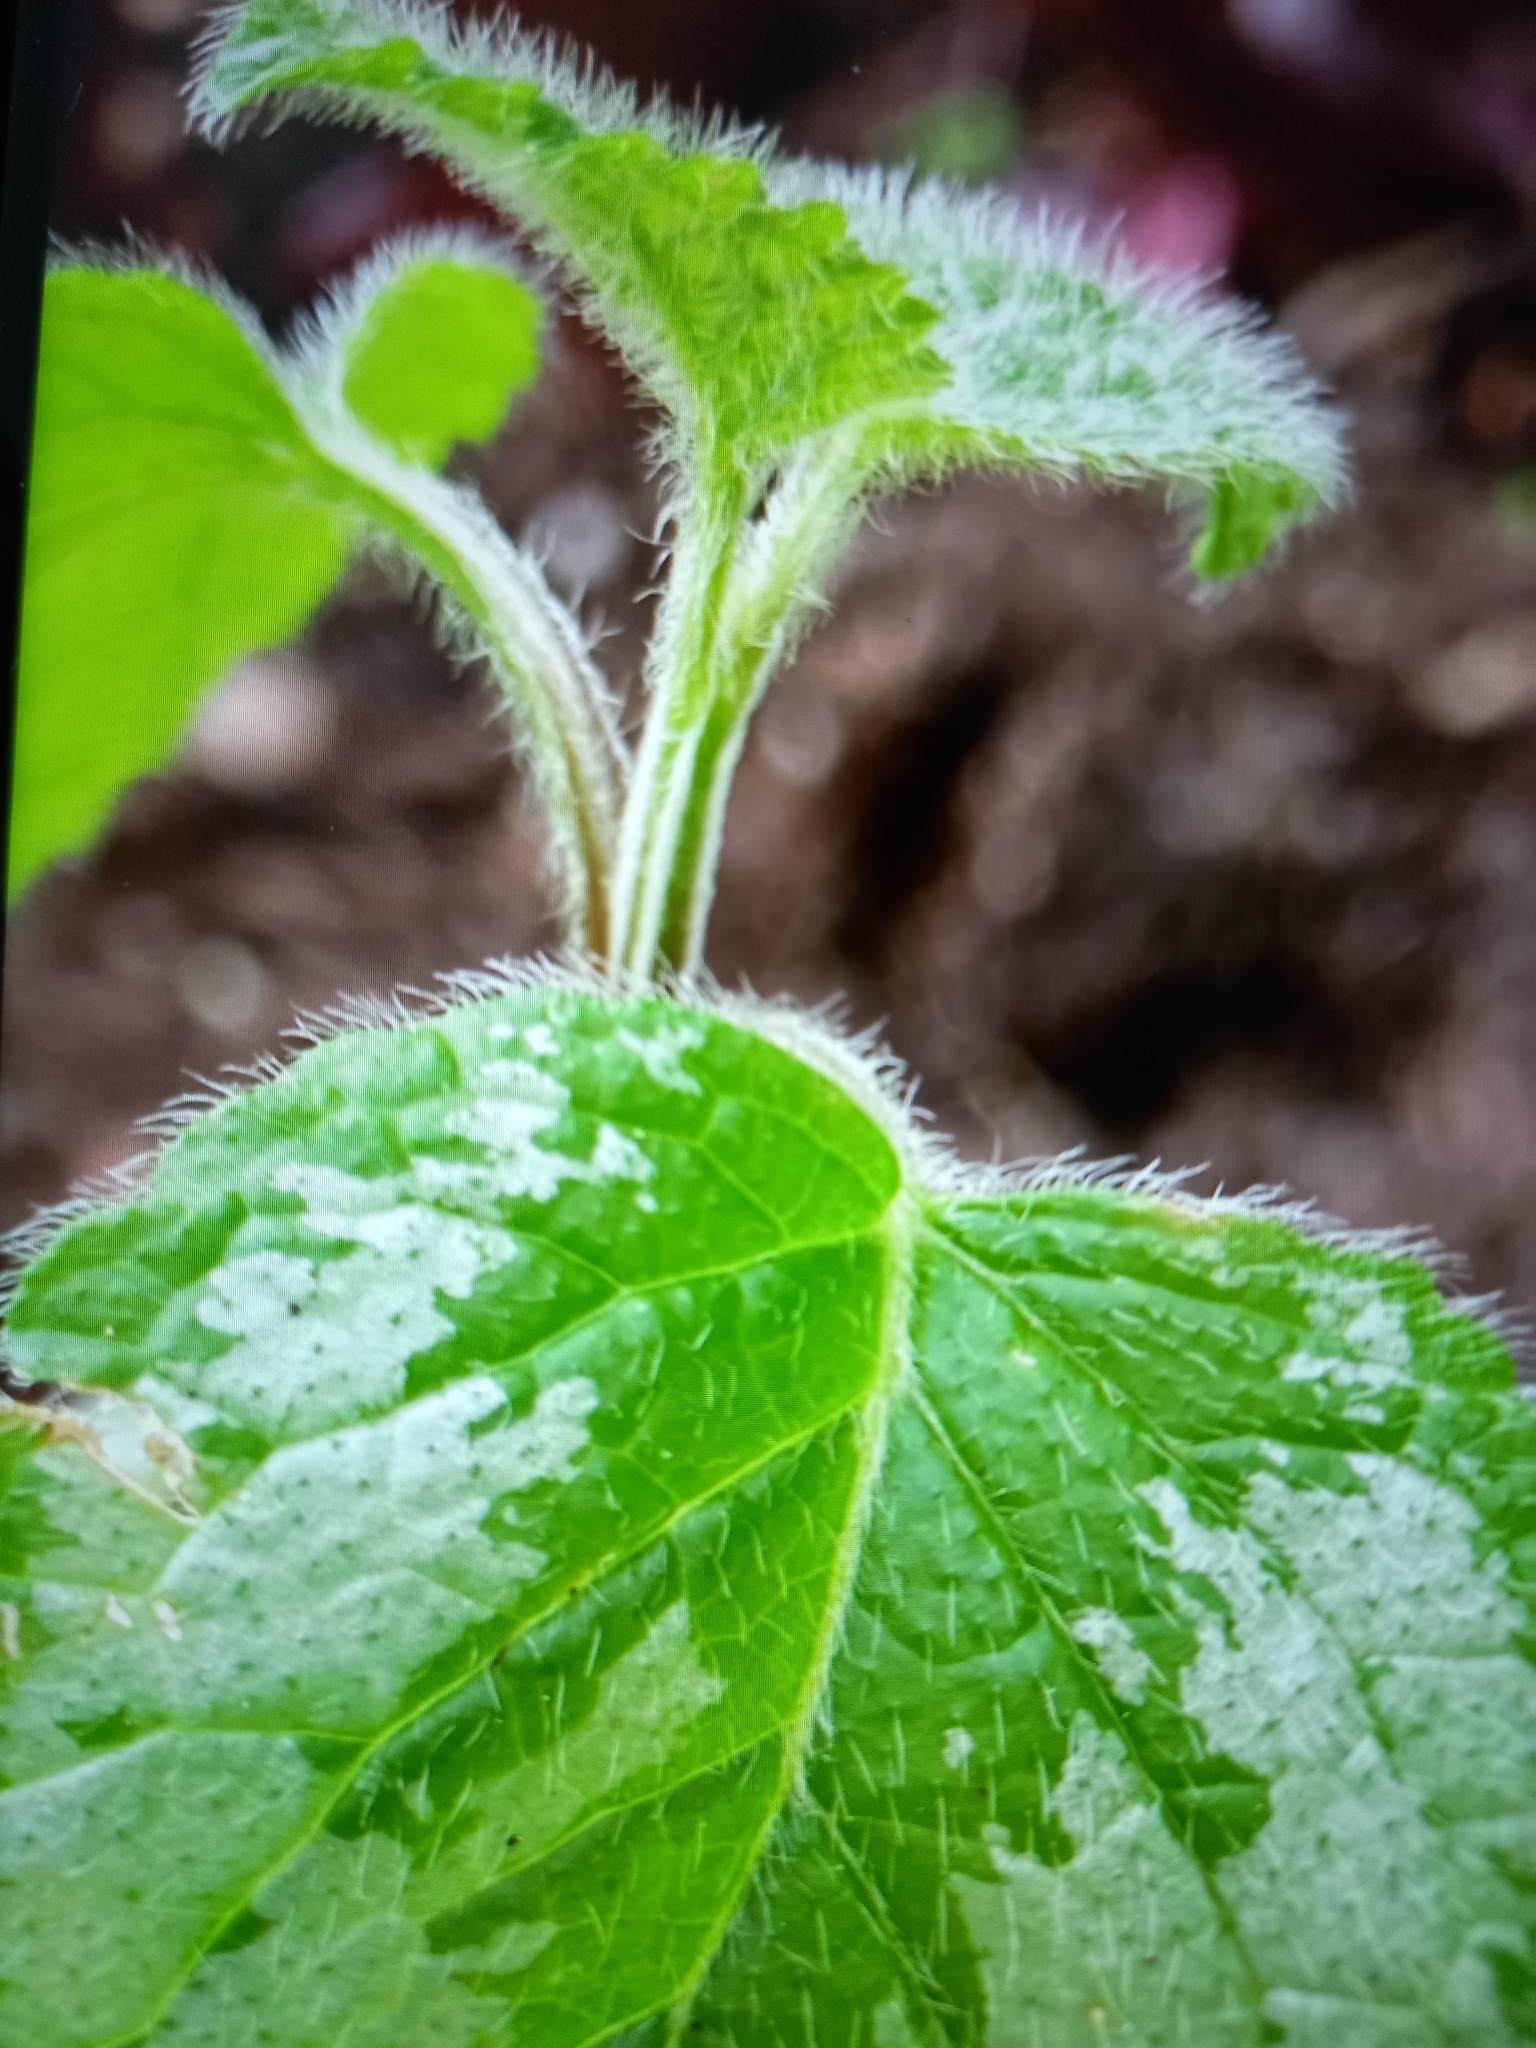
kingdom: Plantae
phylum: Tracheophyta
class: Magnoliopsida
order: Lamiales
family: Lamiaceae
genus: Lamium
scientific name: Lamium galeobdolon
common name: Yellow archangel
